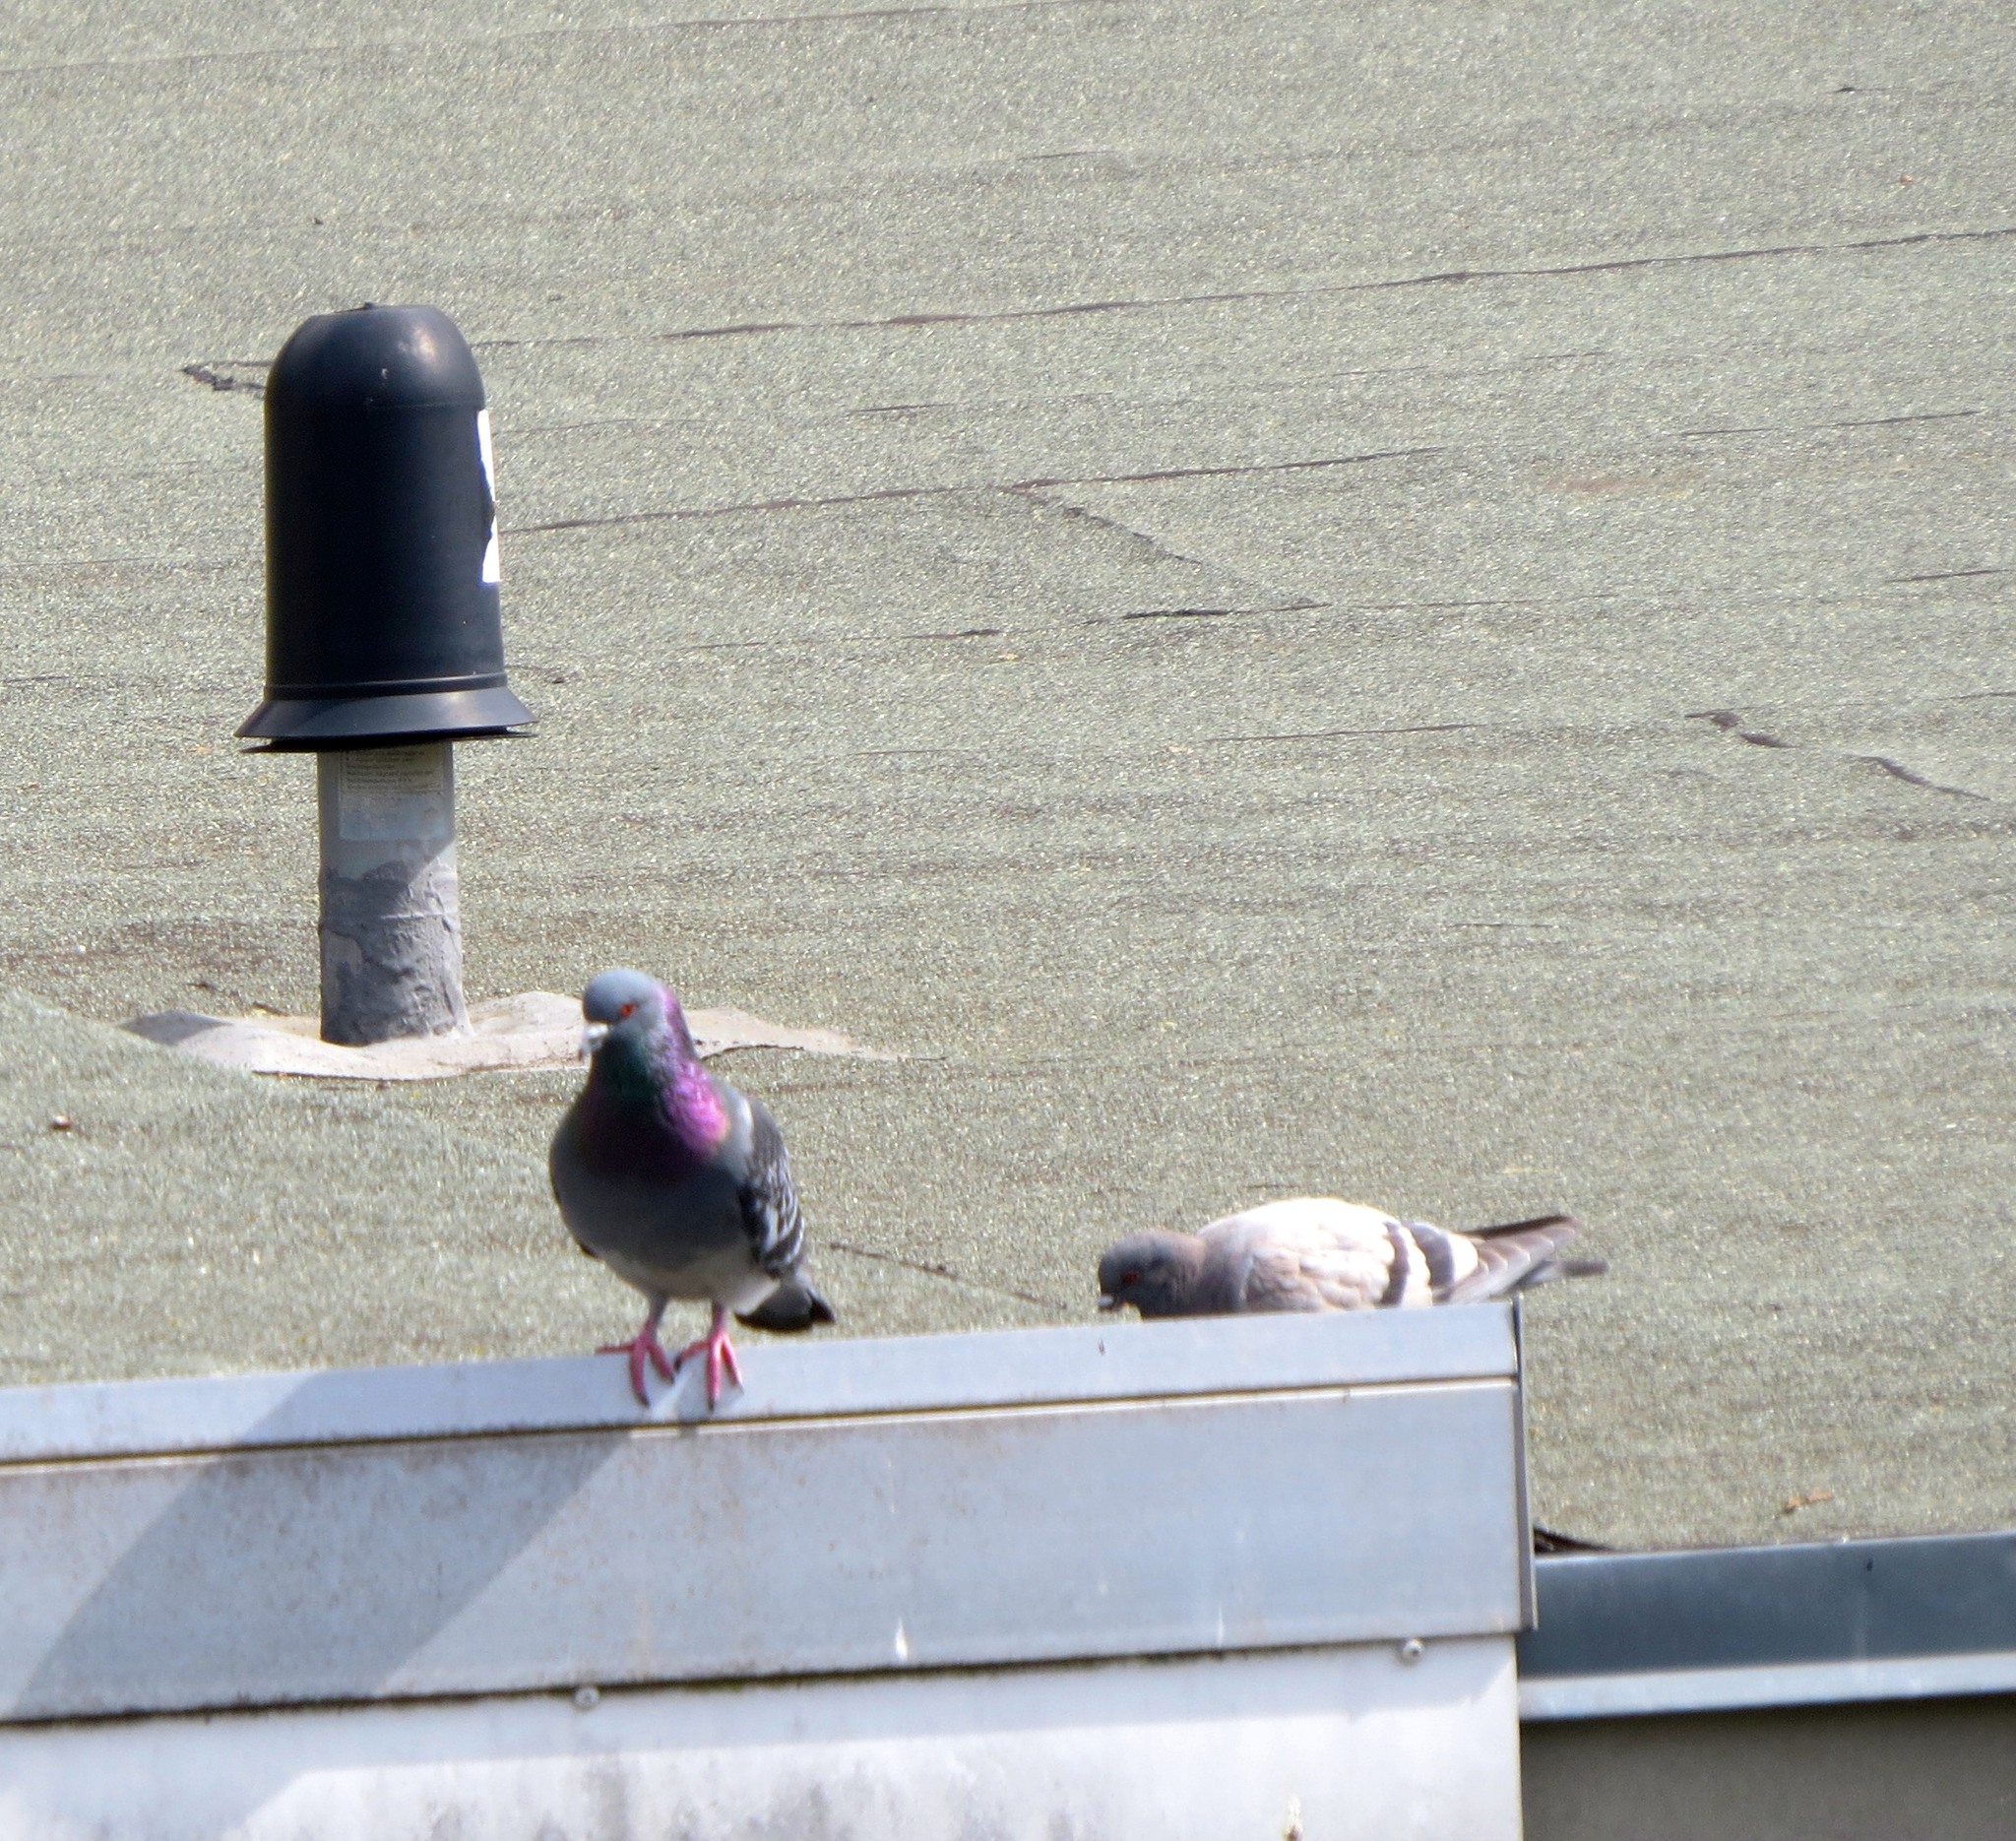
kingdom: Animalia
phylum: Chordata
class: Aves
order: Columbiformes
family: Columbidae
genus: Columba
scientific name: Columba livia
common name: Rock pigeon
